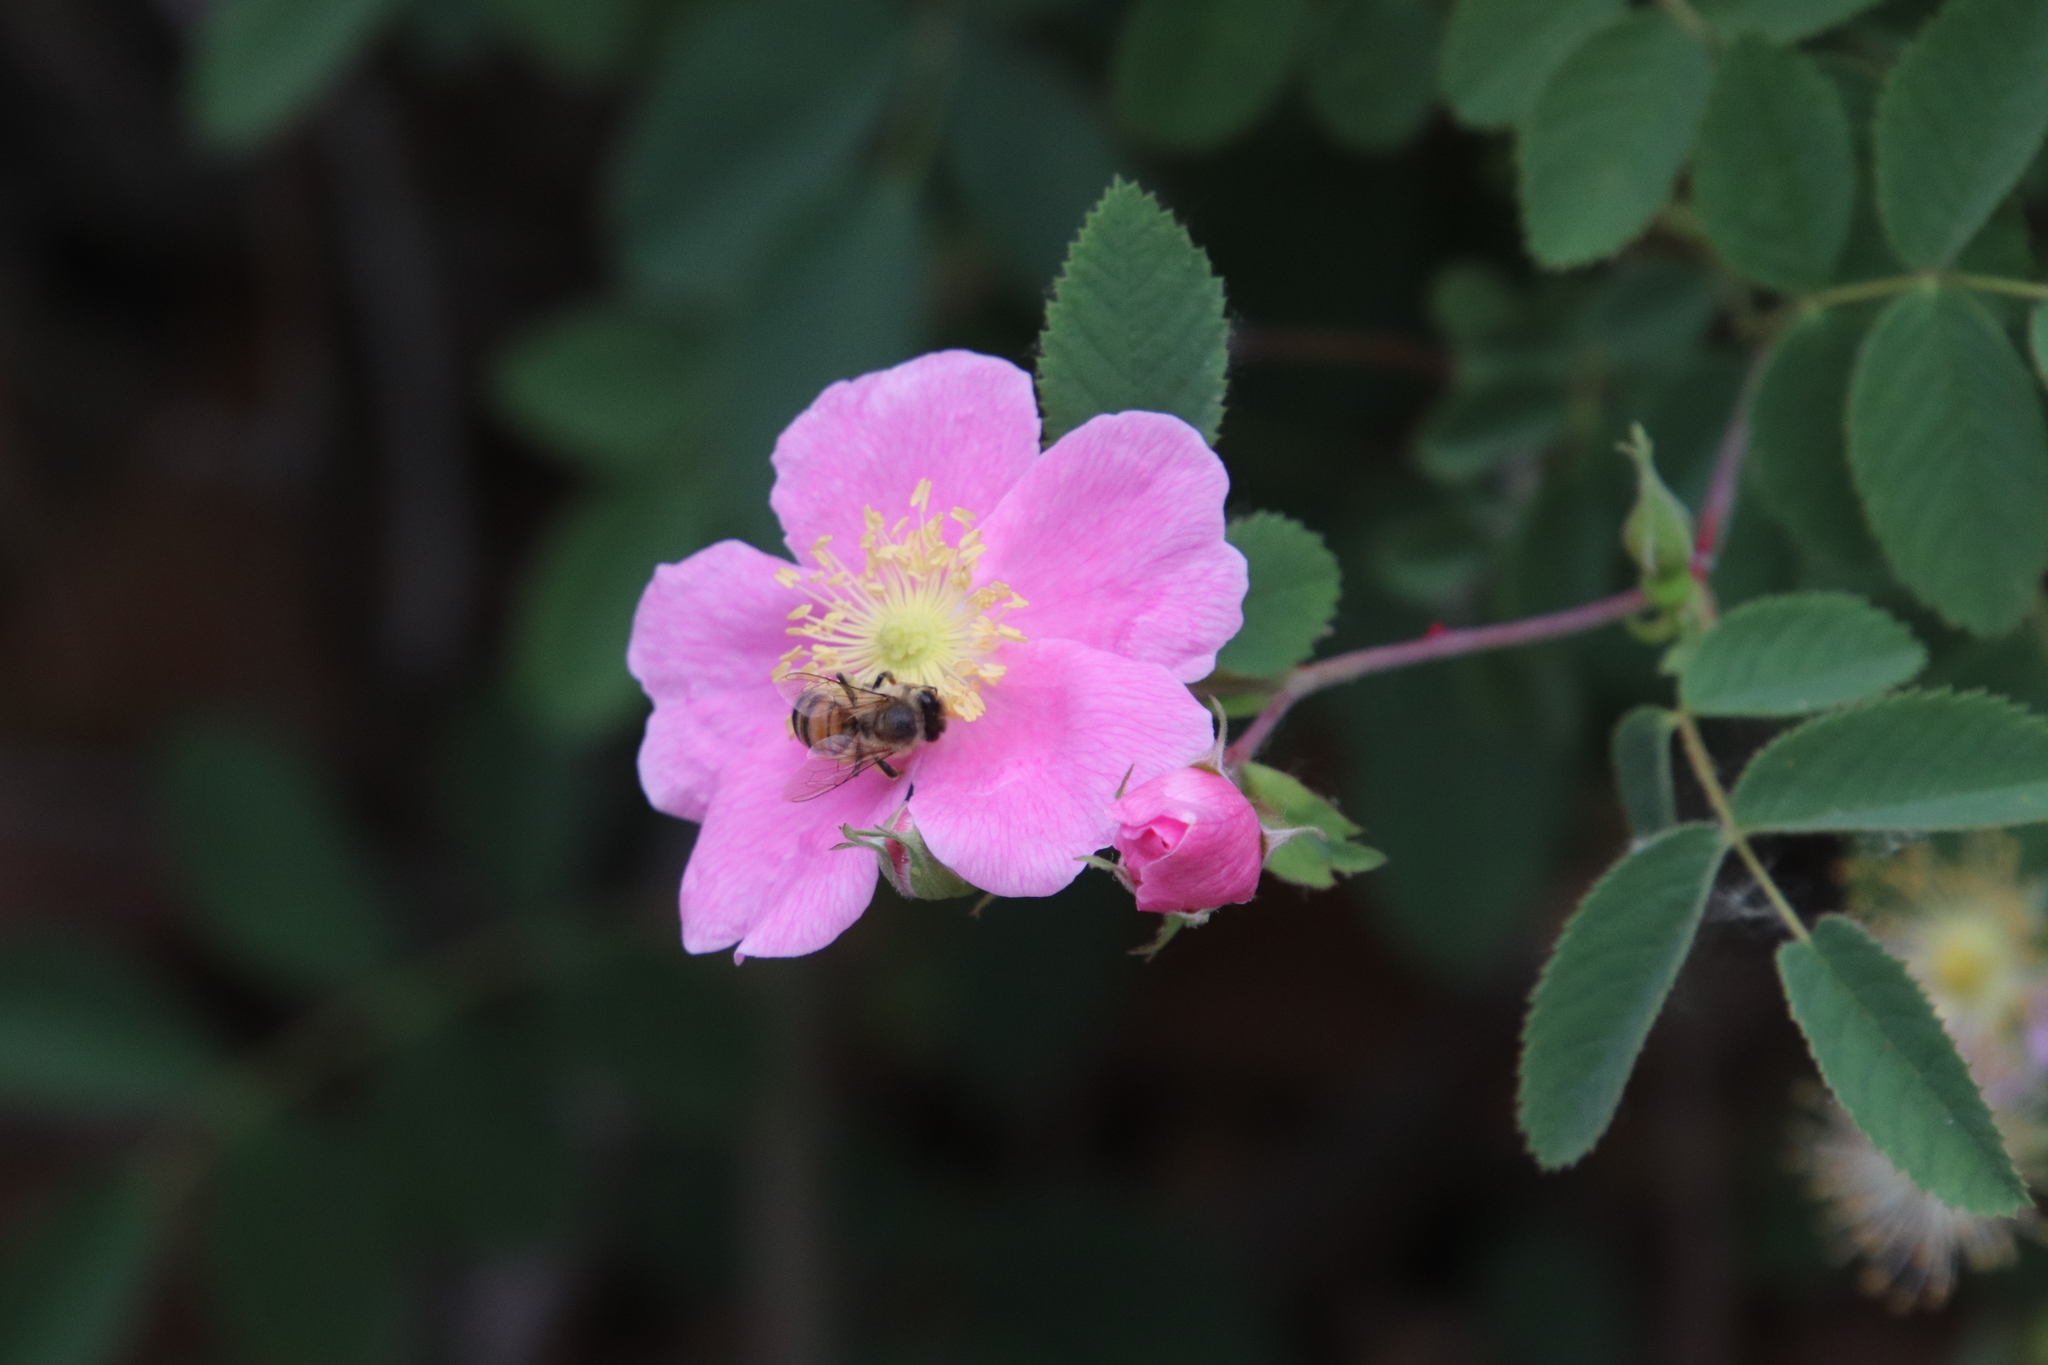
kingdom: Animalia
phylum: Arthropoda
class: Insecta
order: Hymenoptera
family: Apidae
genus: Apis
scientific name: Apis mellifera
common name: Honey bee
